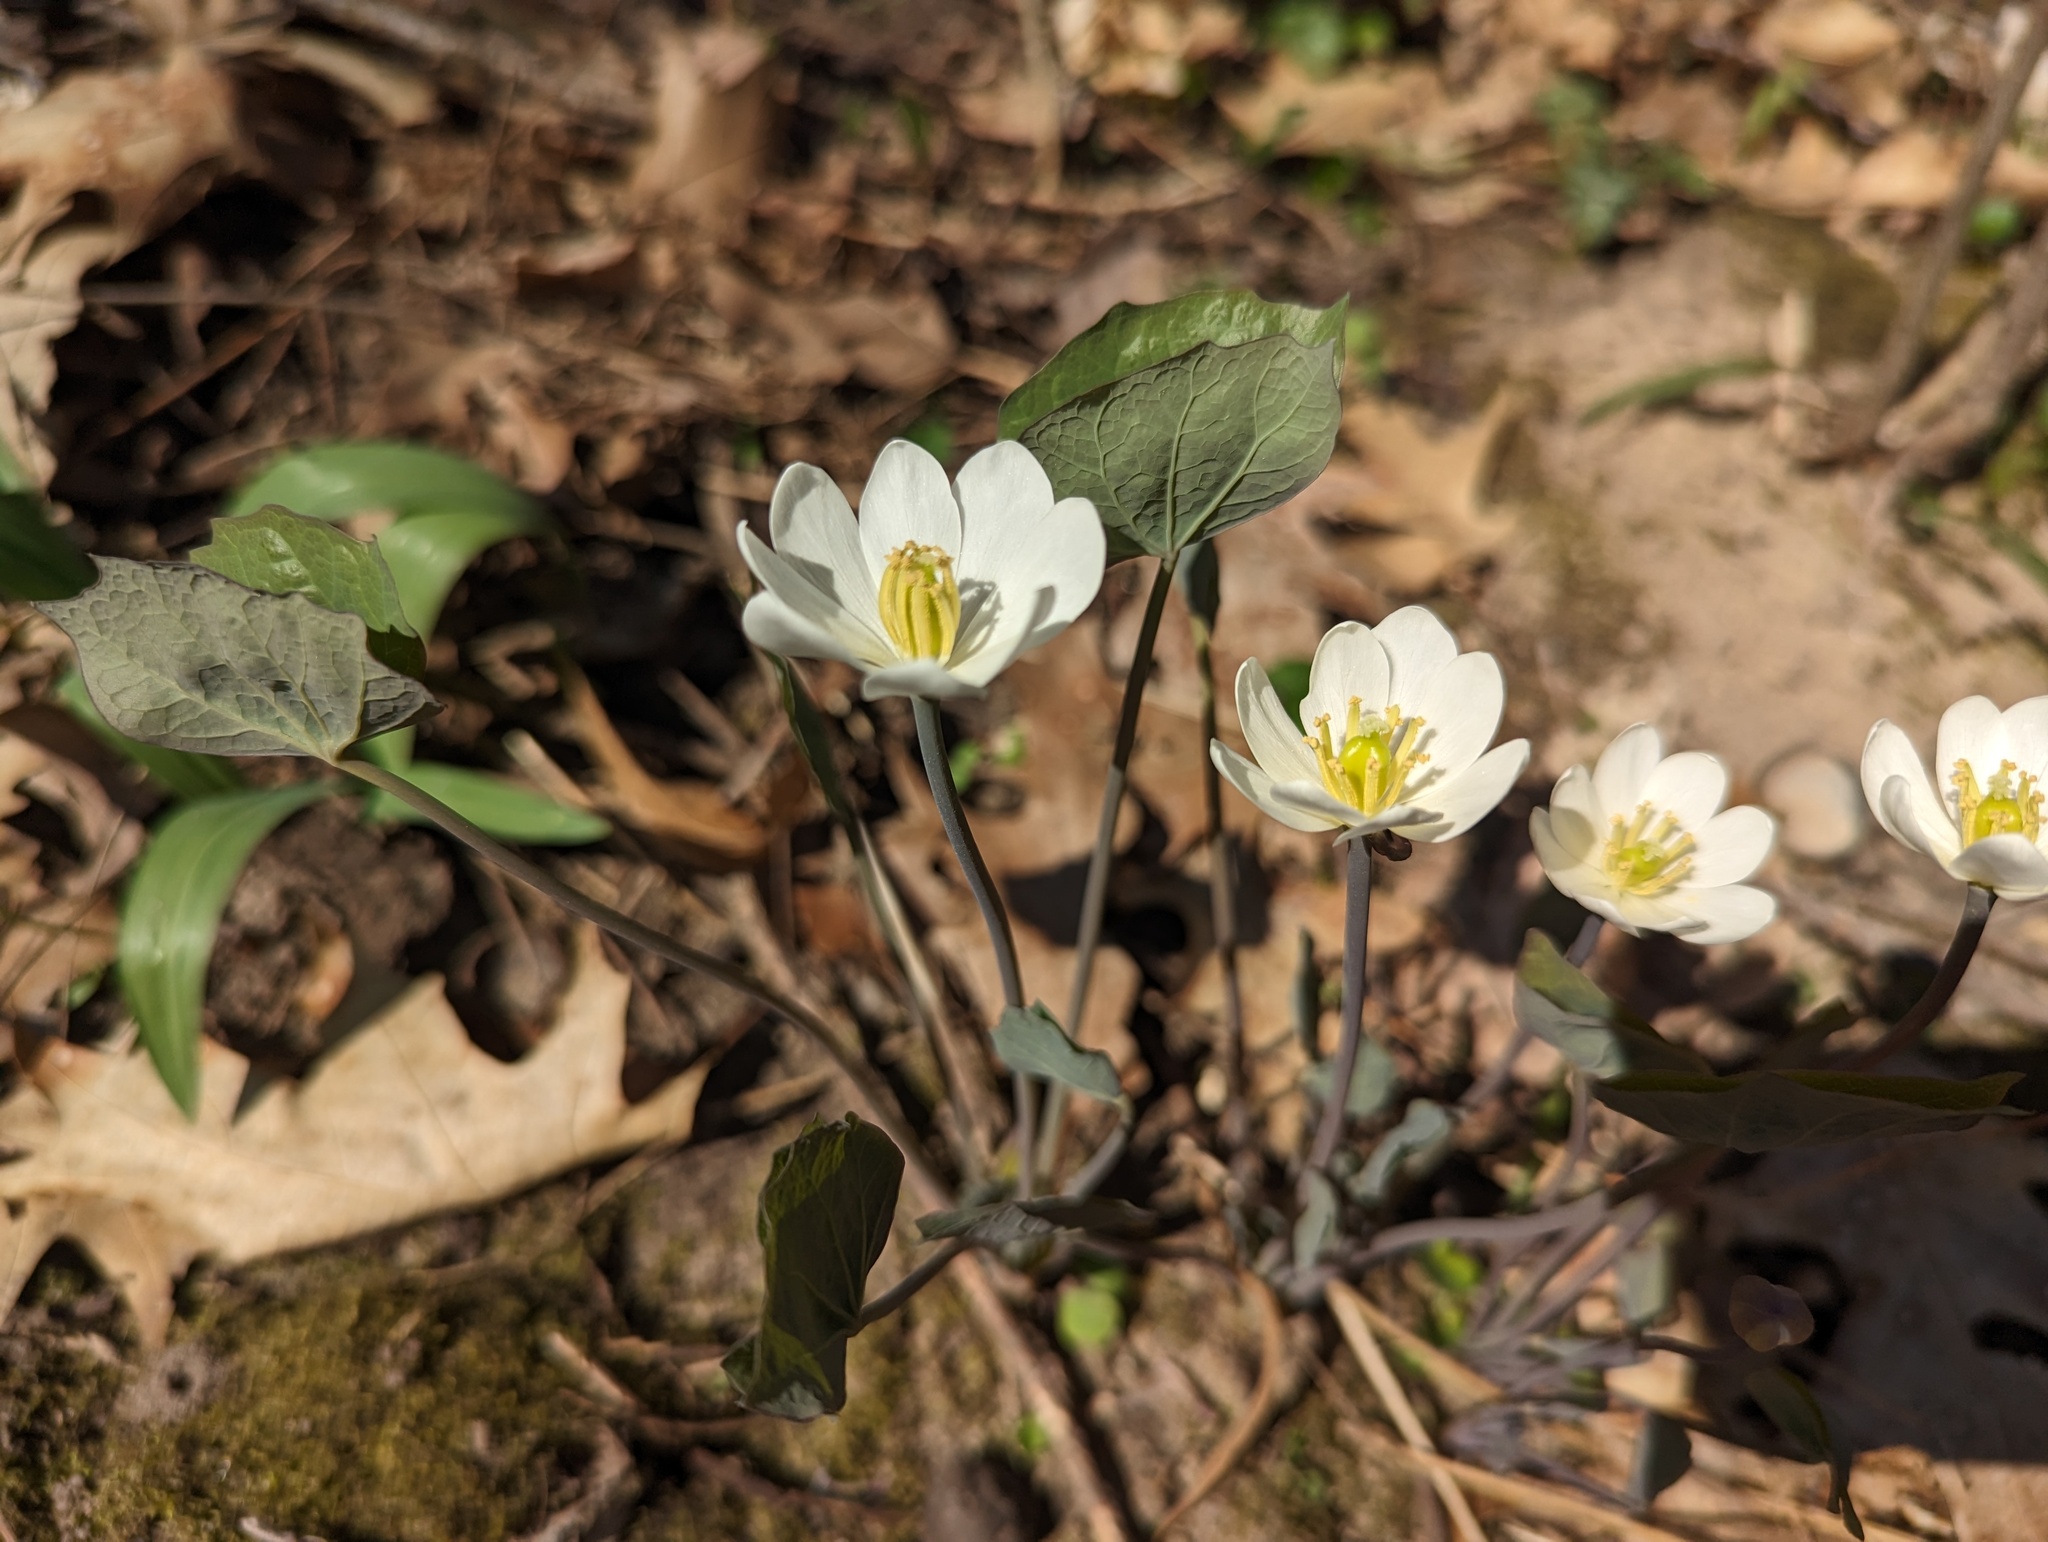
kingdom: Plantae
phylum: Tracheophyta
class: Magnoliopsida
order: Ranunculales
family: Berberidaceae
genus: Jeffersonia
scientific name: Jeffersonia diphylla
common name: Rheumatism-root
